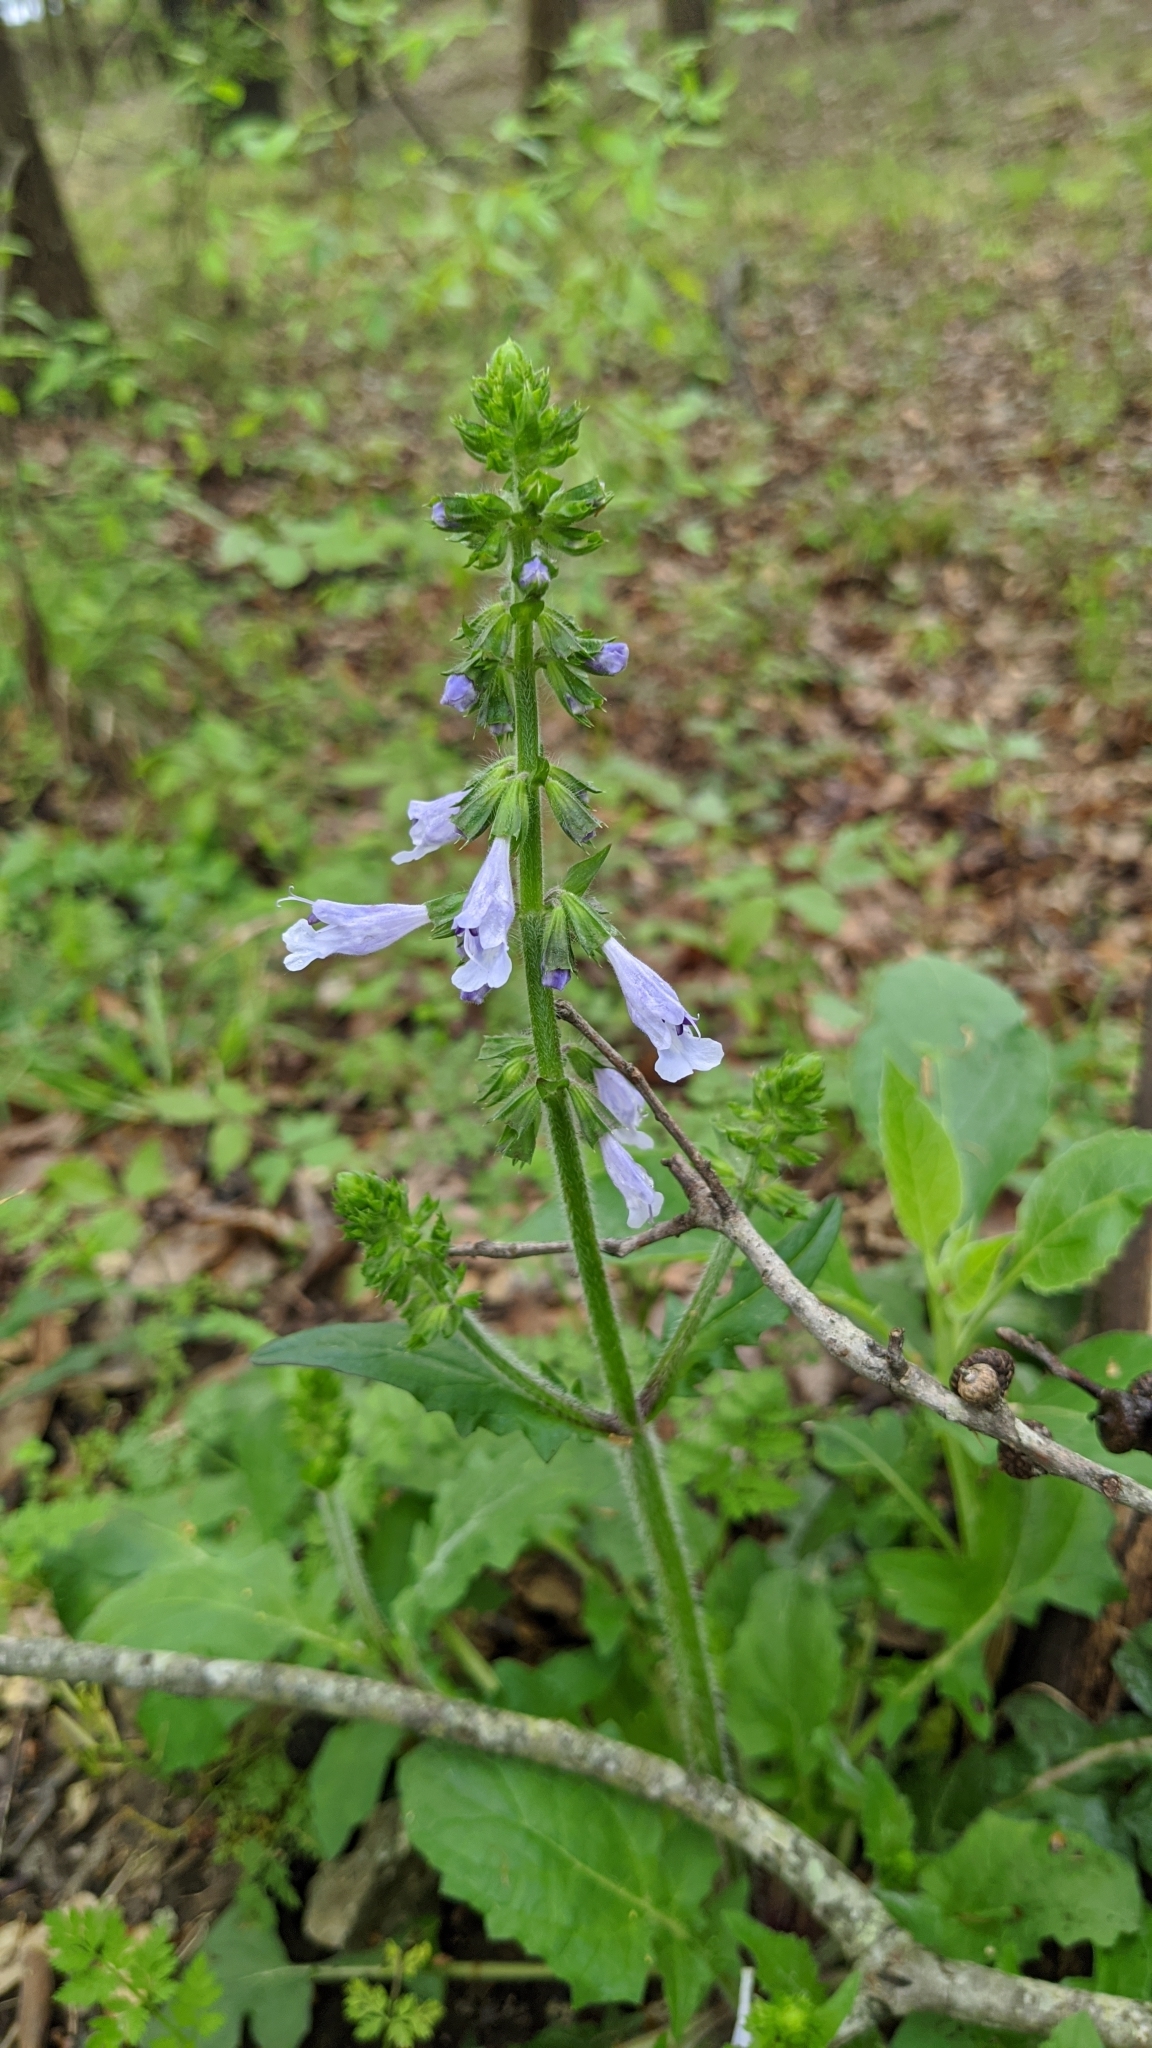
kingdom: Plantae
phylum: Tracheophyta
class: Magnoliopsida
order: Lamiales
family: Lamiaceae
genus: Salvia
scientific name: Salvia lyrata
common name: Cancerweed
